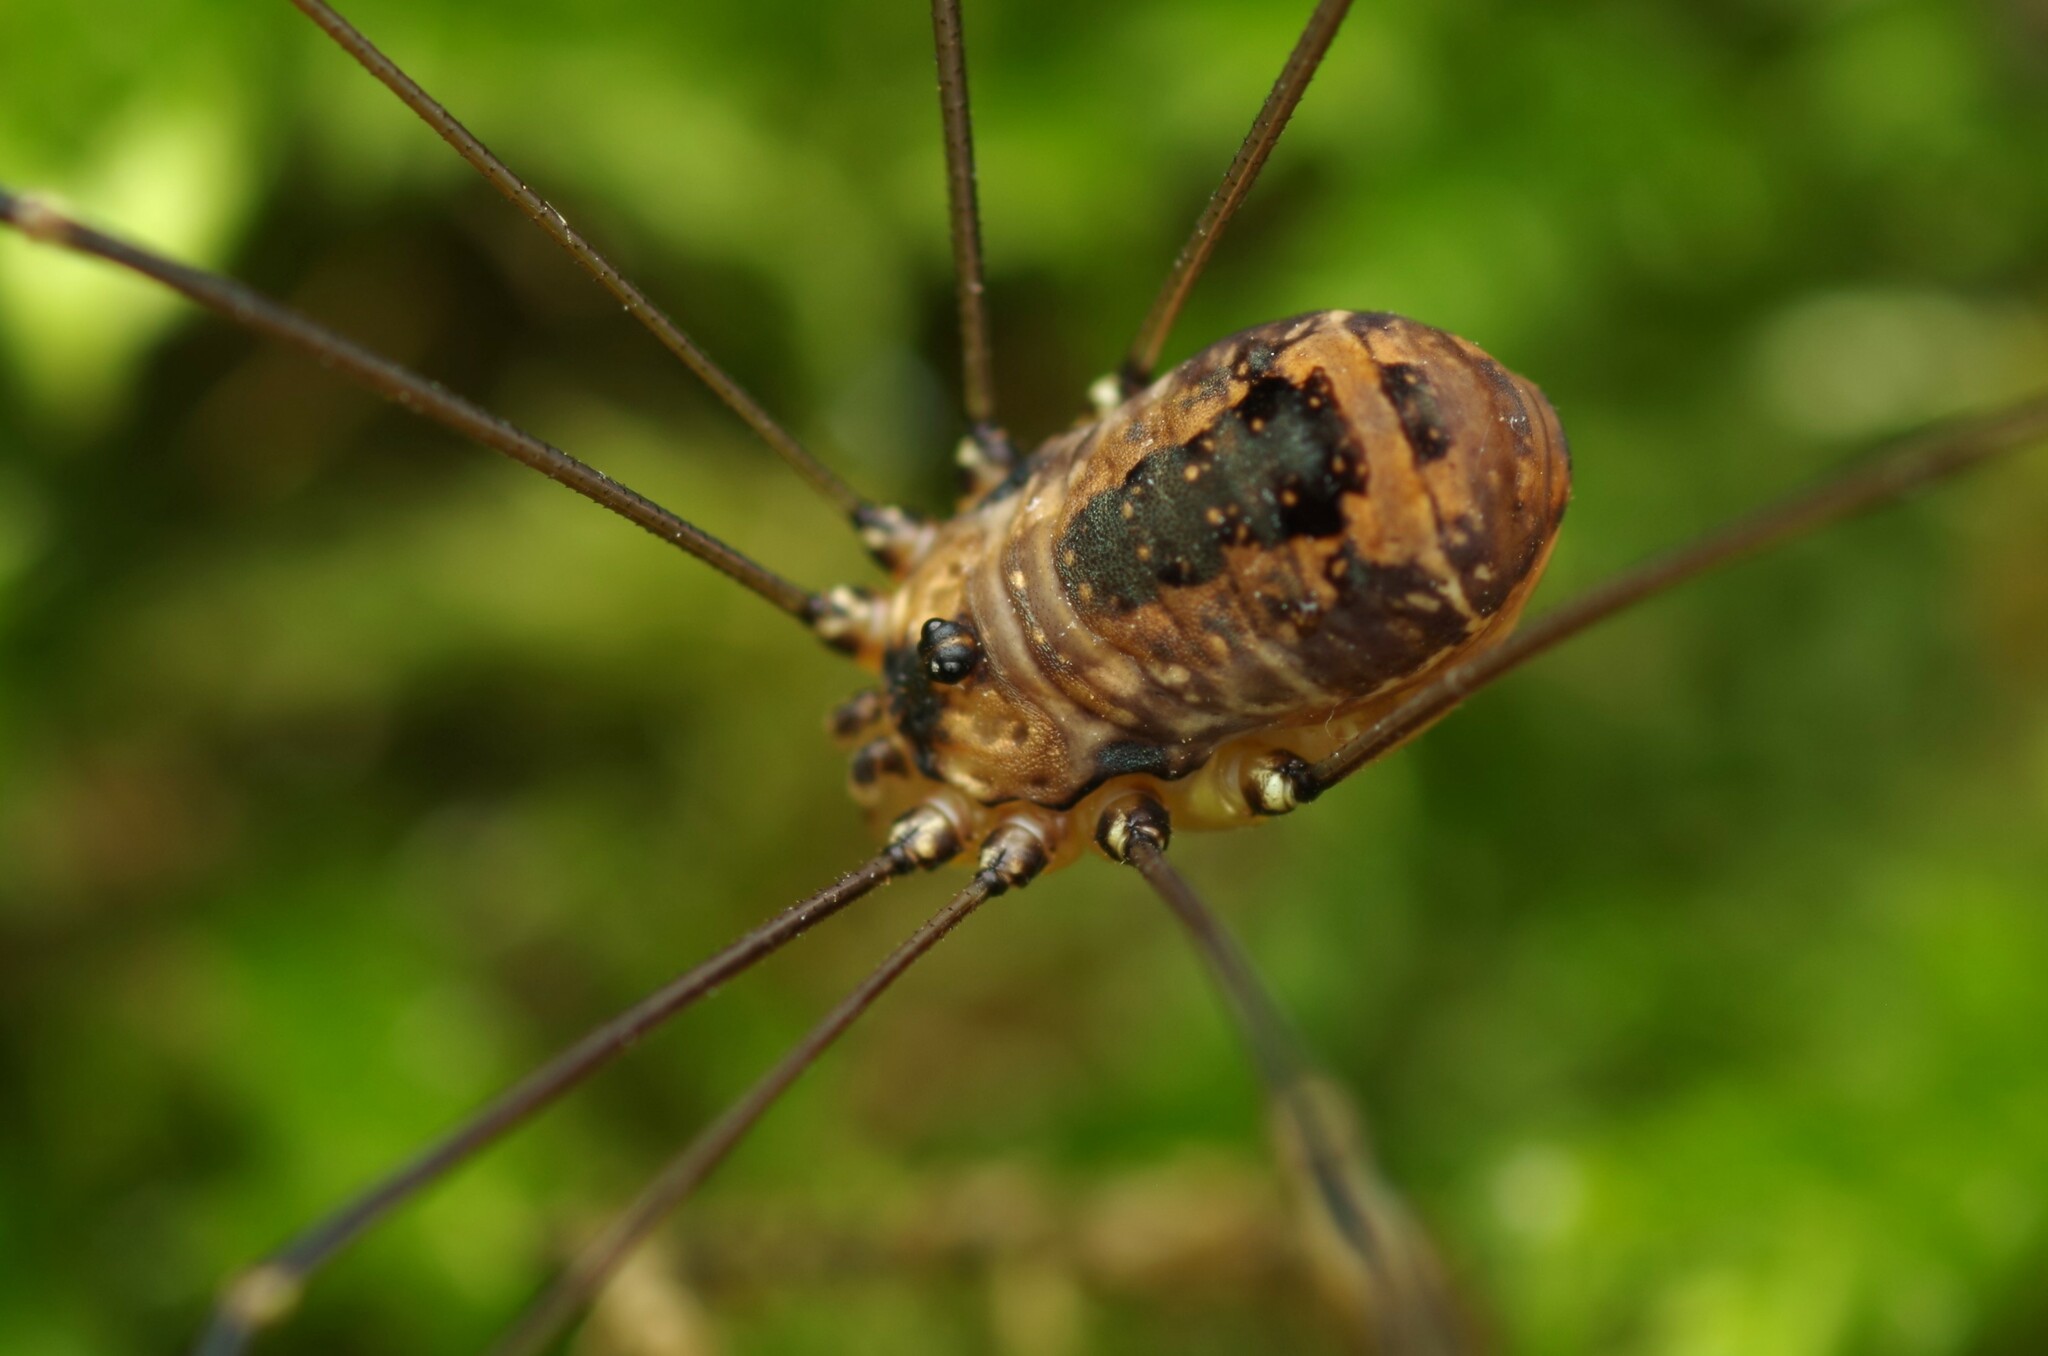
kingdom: Animalia
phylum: Arthropoda
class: Arachnida
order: Opiliones
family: Sclerosomatidae
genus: Leiobunum
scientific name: Leiobunum rotundum
